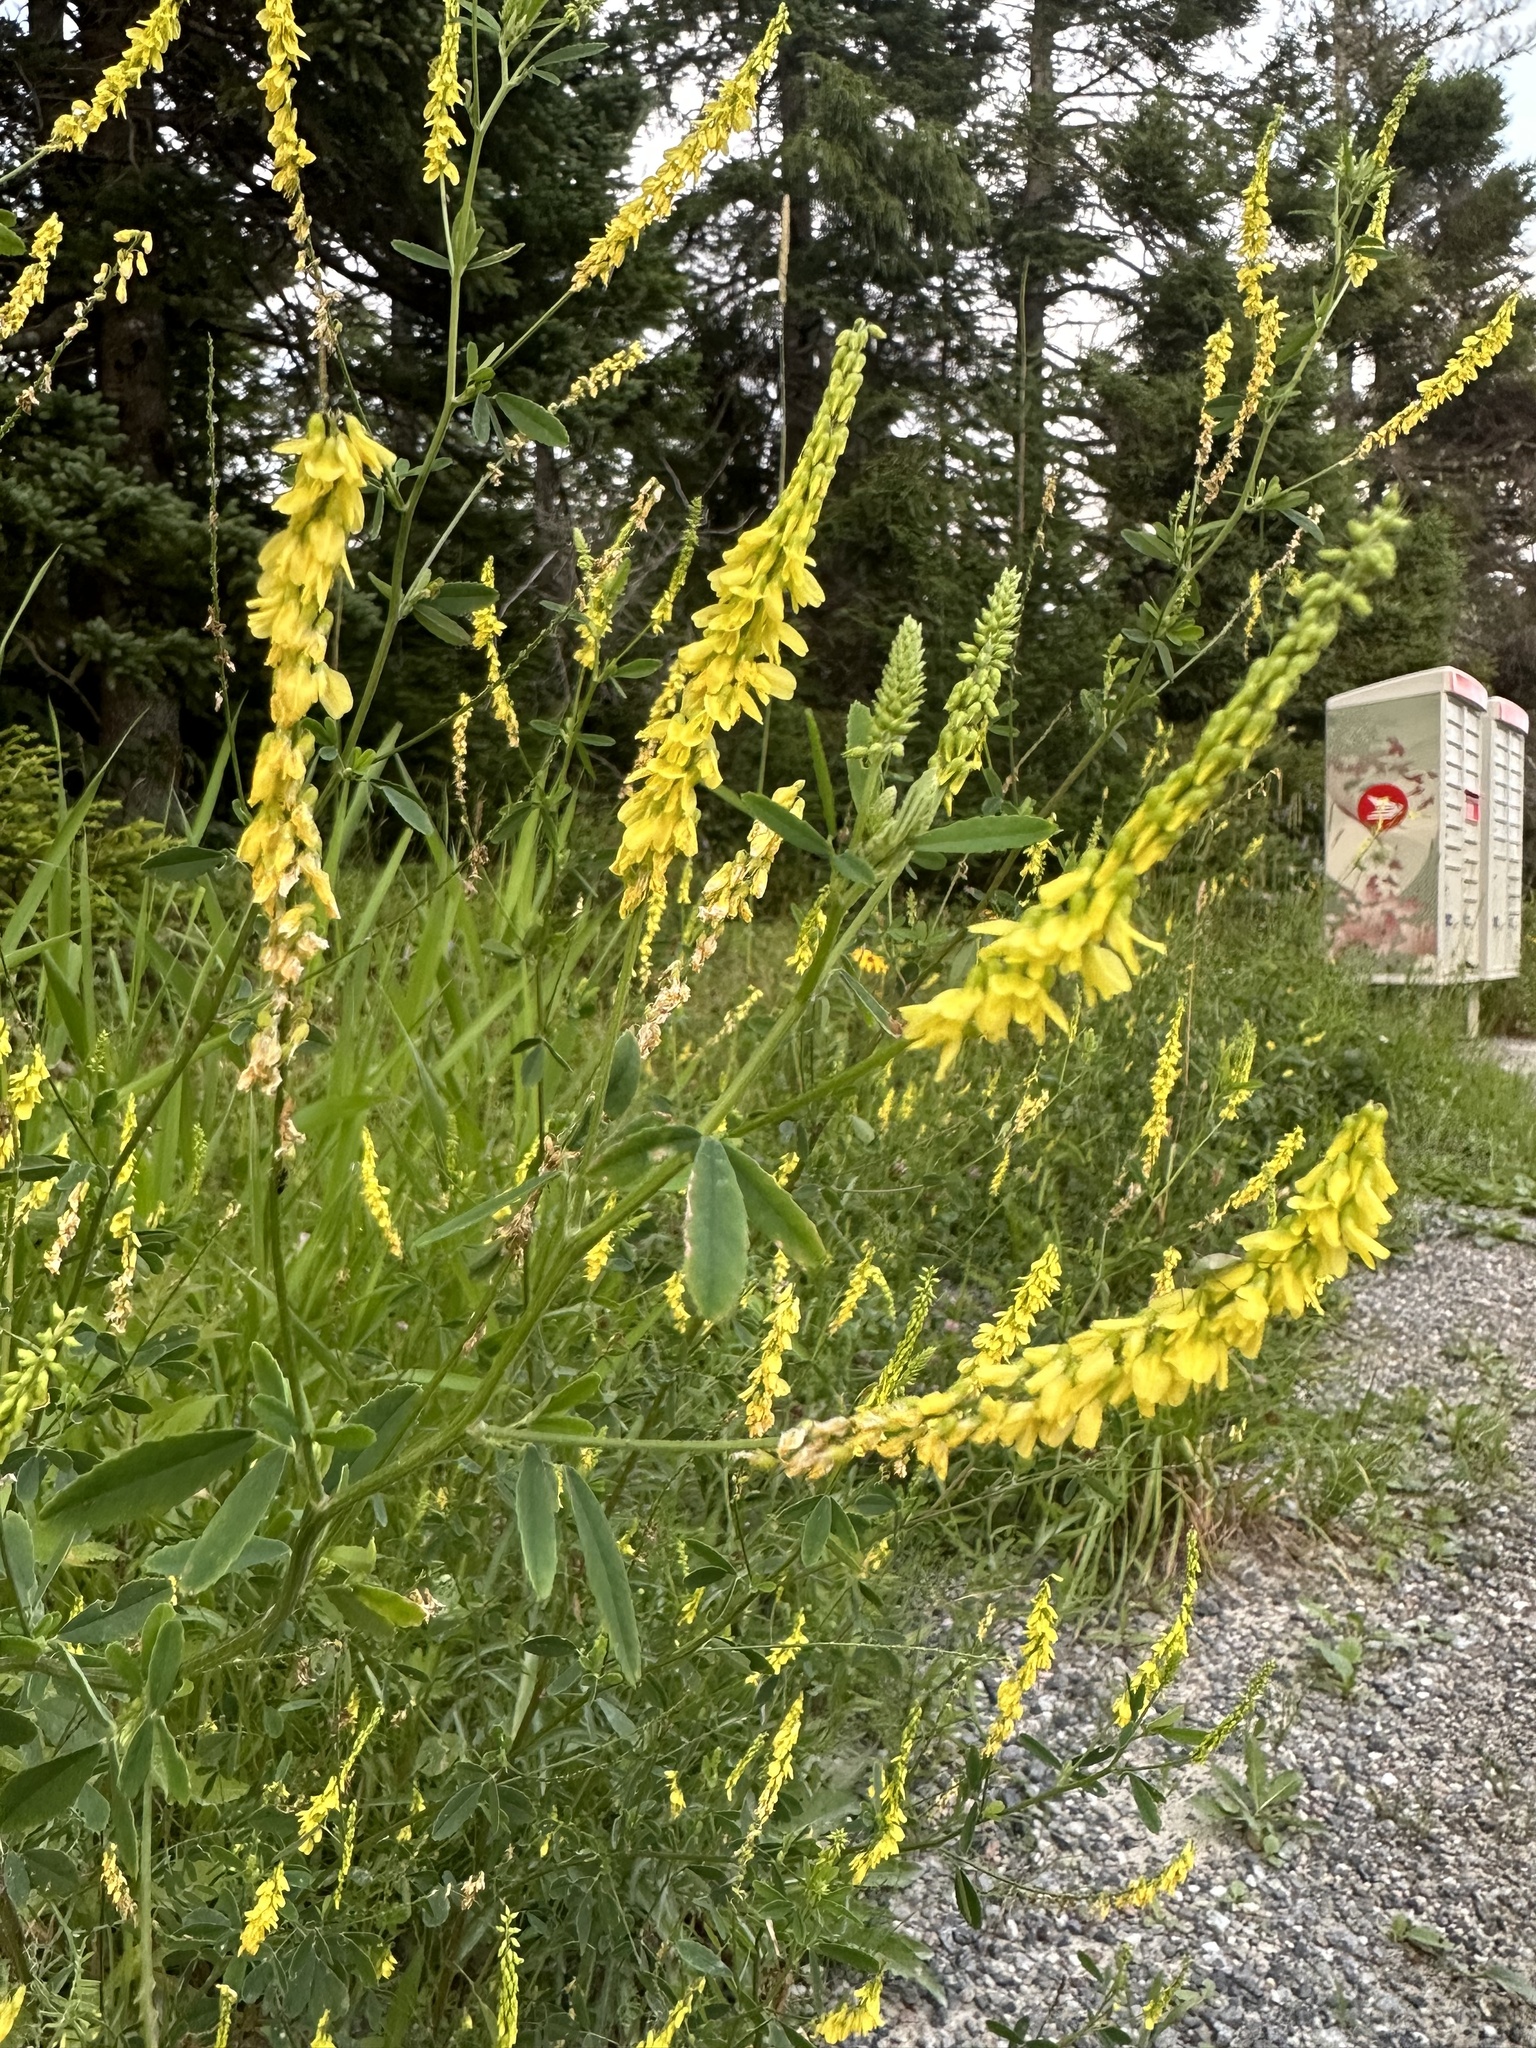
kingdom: Plantae
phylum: Tracheophyta
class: Magnoliopsida
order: Fabales
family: Fabaceae
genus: Melilotus
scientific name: Melilotus officinalis
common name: Sweetclover
